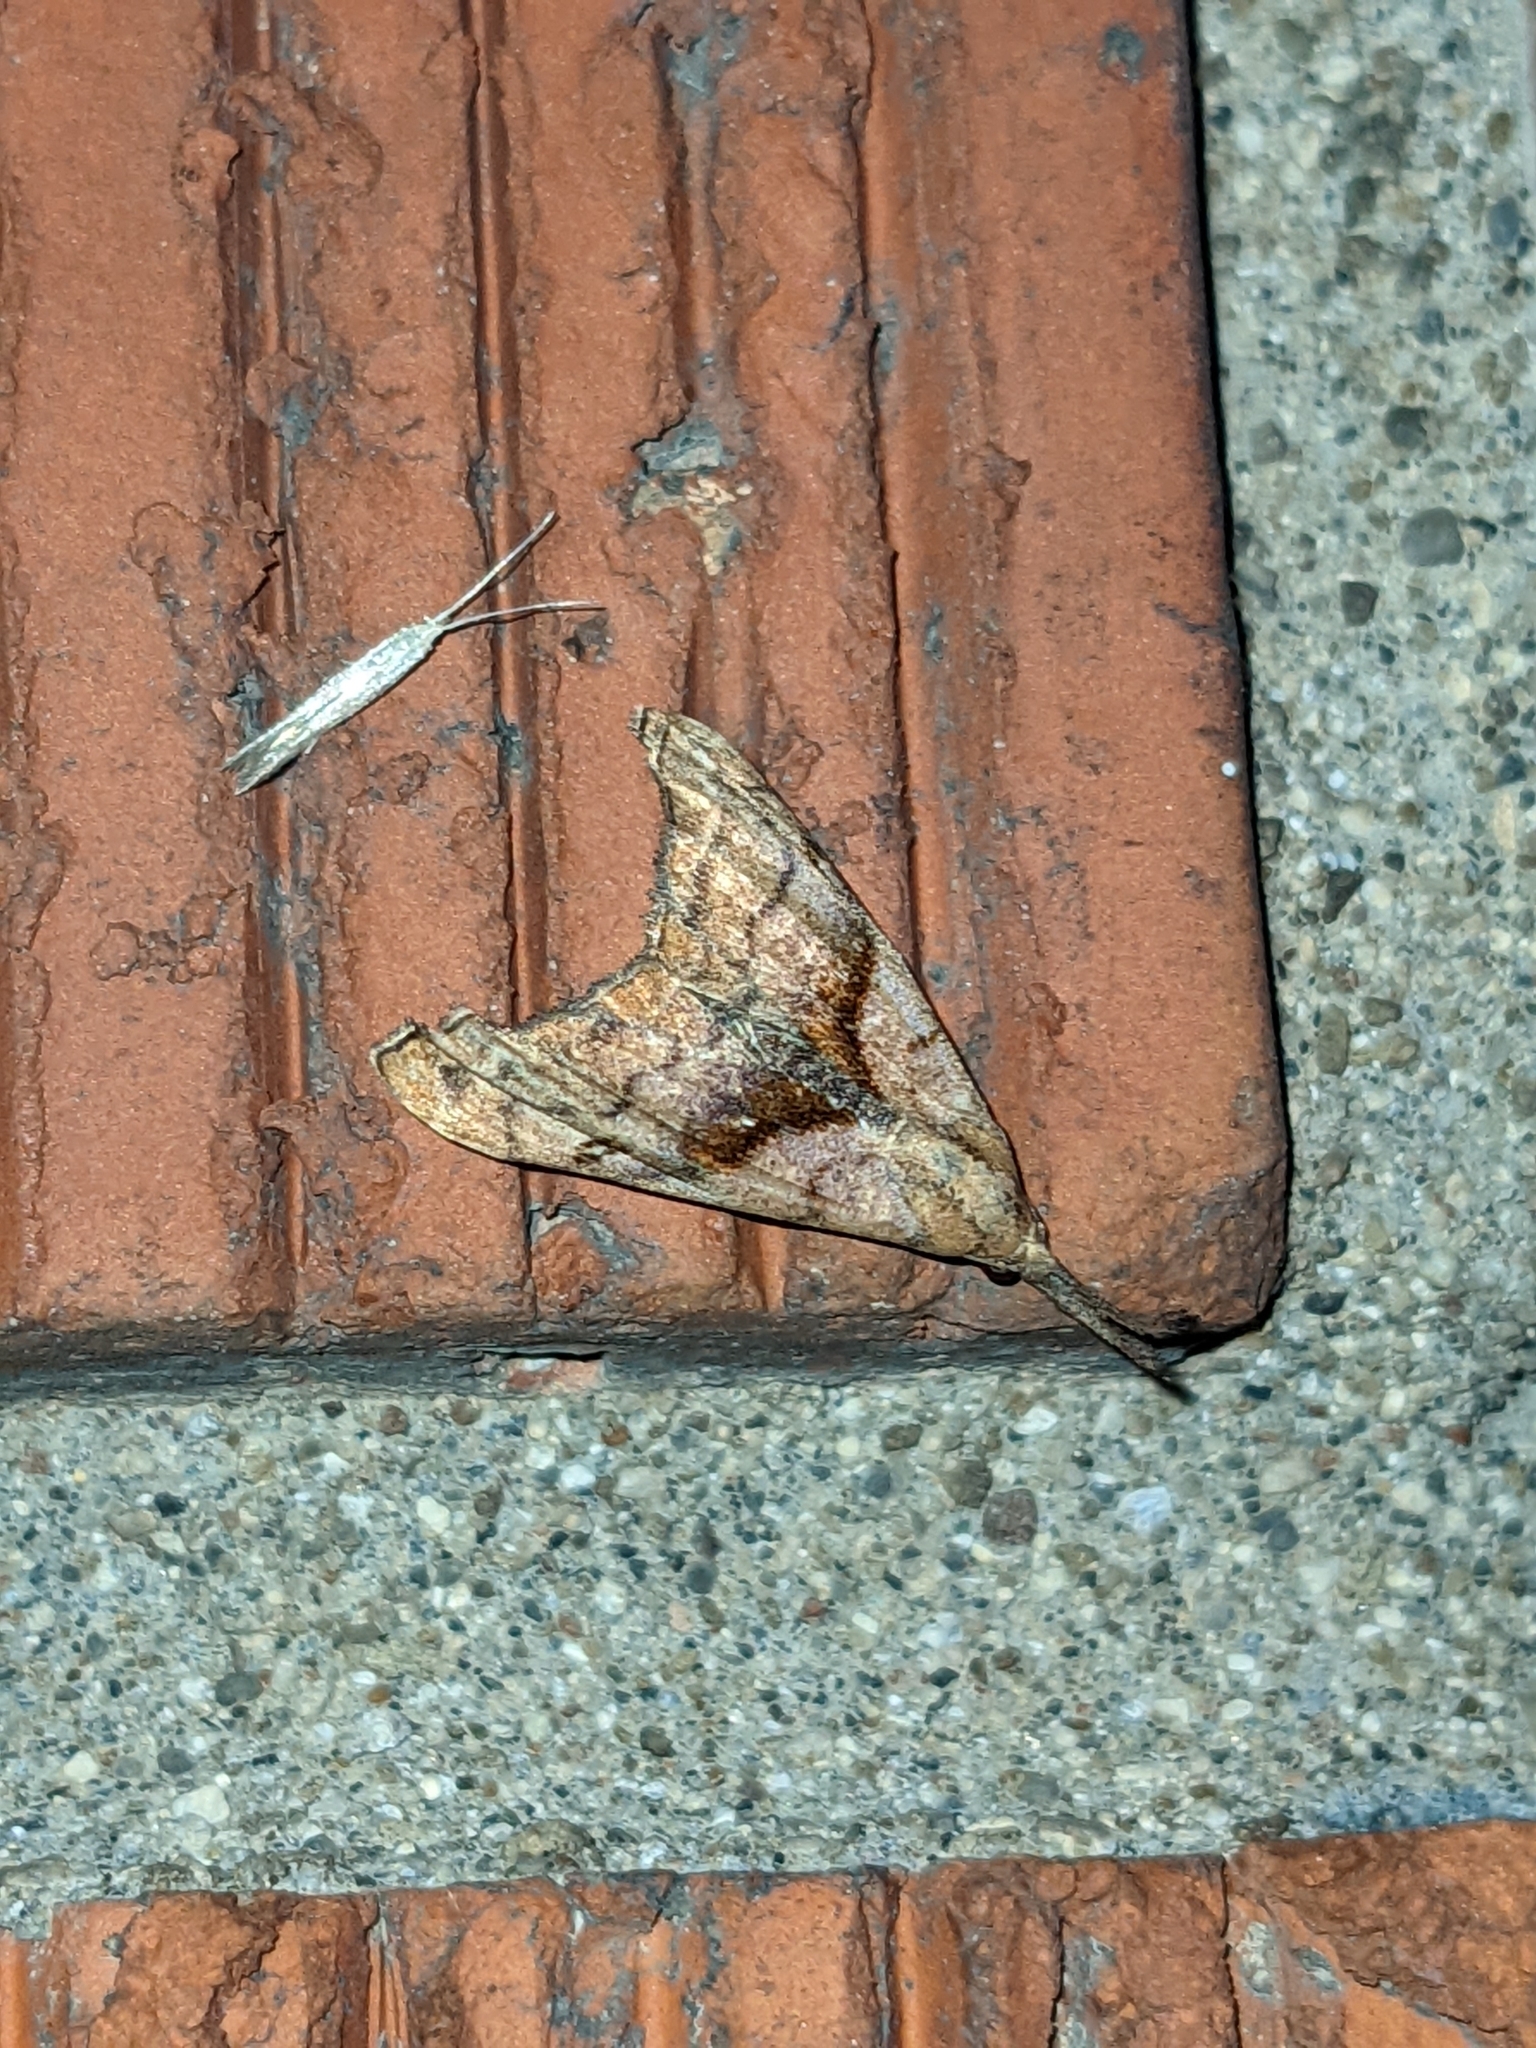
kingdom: Animalia
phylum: Arthropoda
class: Insecta
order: Lepidoptera
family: Erebidae
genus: Palthis
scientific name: Palthis angulalis
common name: Dark-spotted palthis moth
